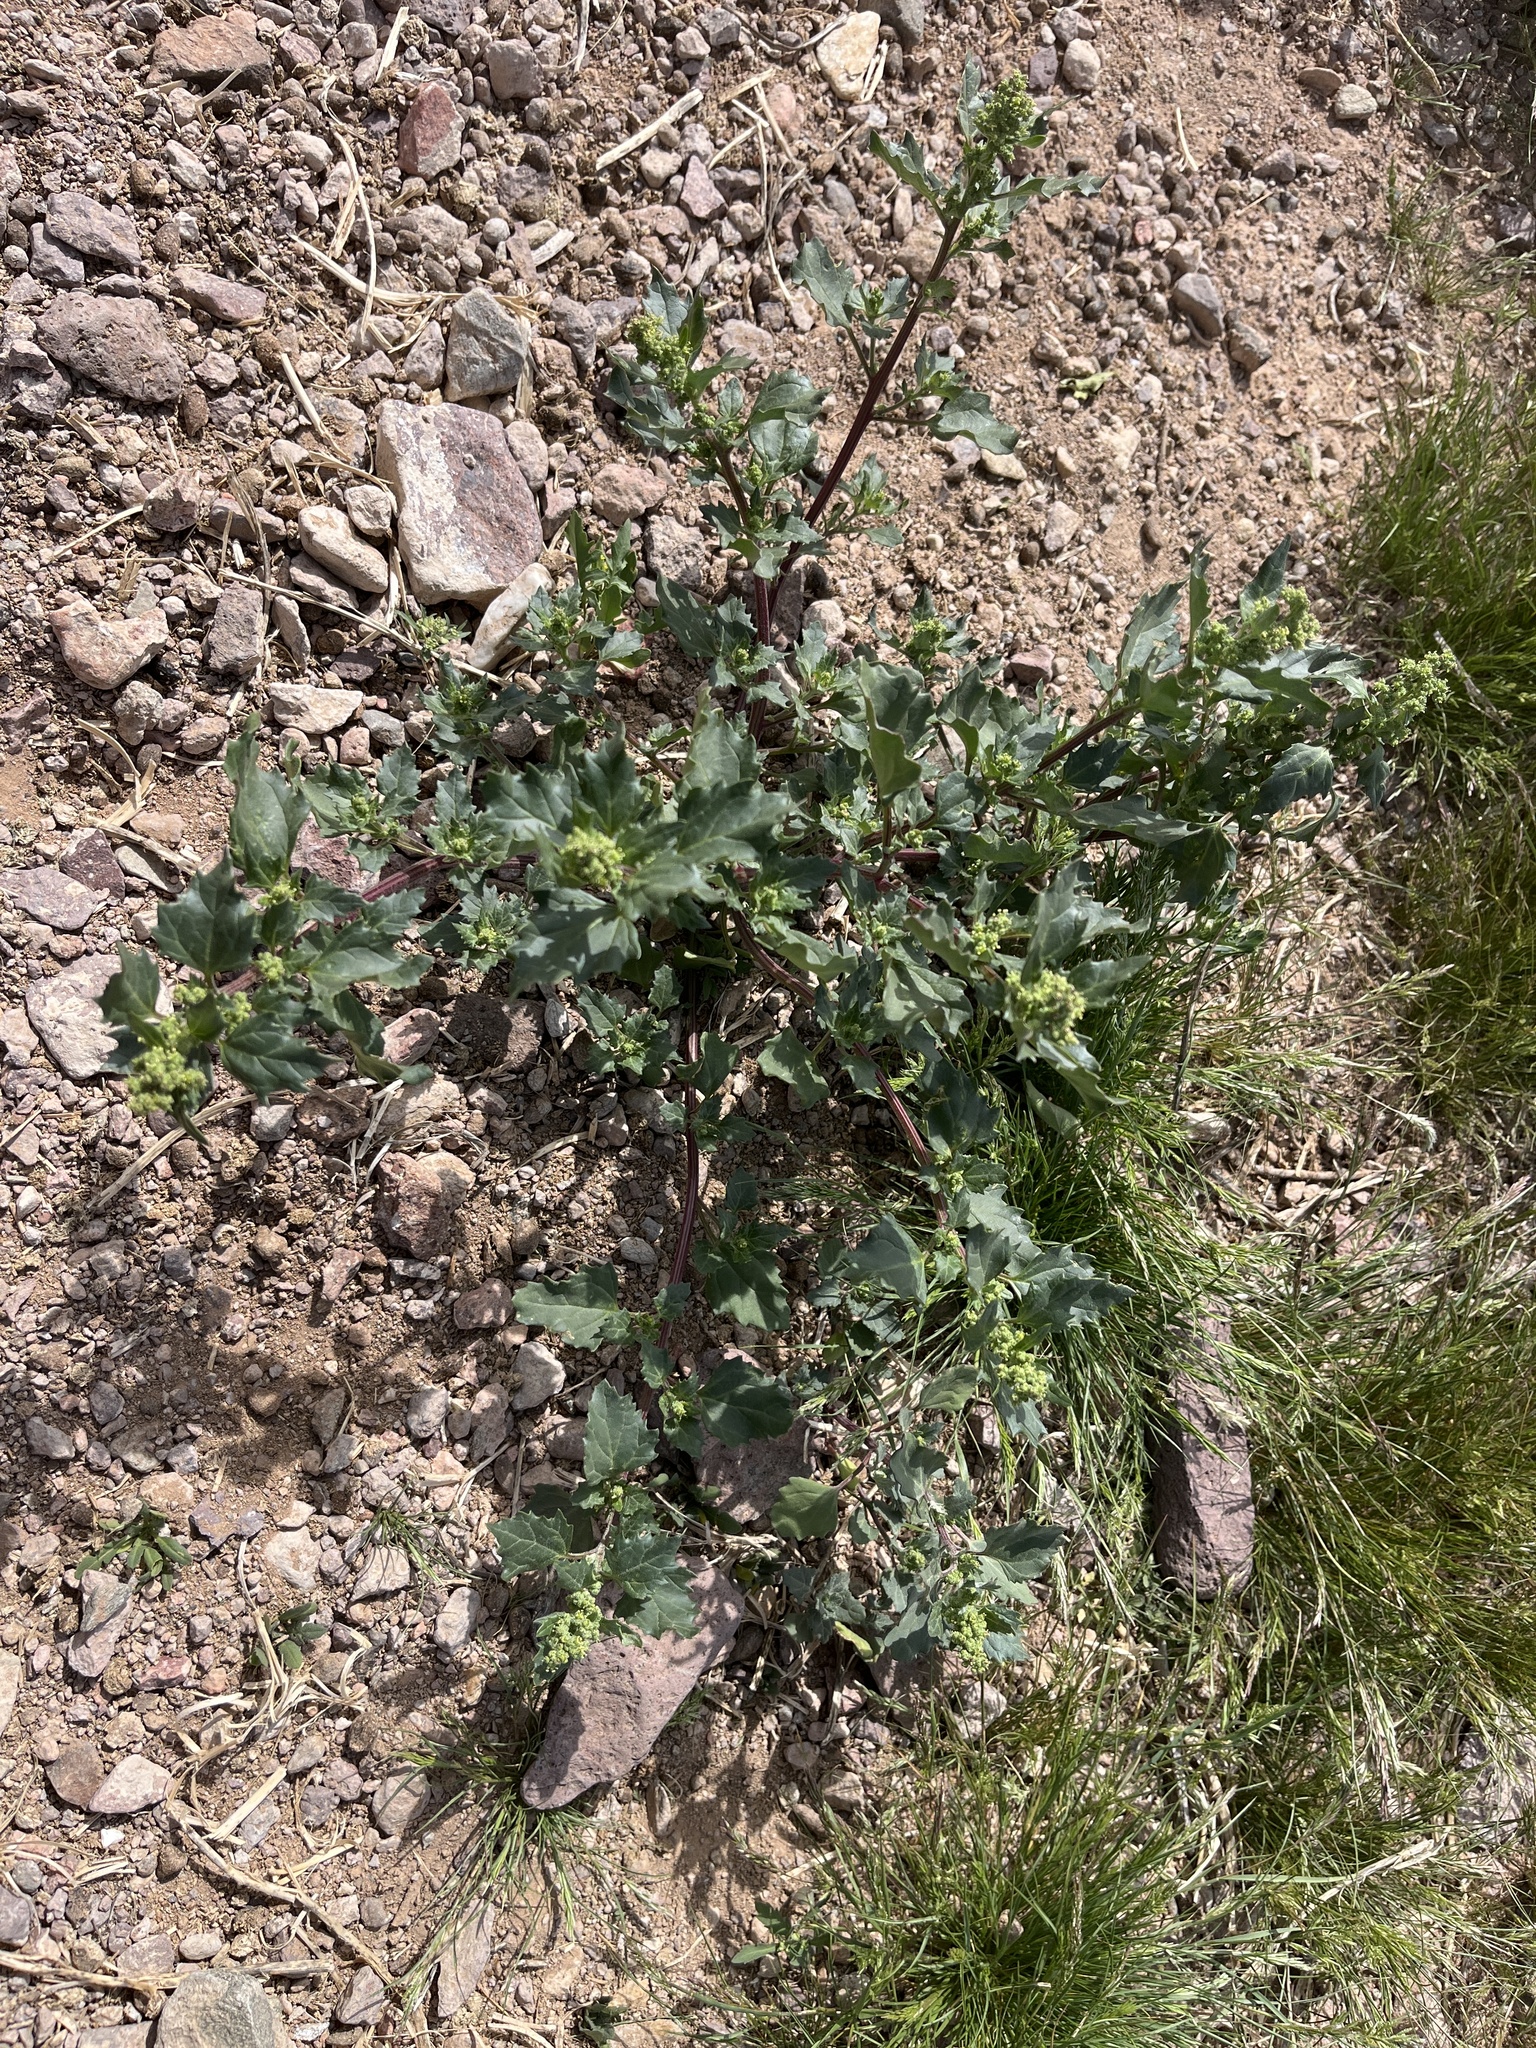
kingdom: Plantae
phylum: Tracheophyta
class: Magnoliopsida
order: Caryophyllales
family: Amaranthaceae
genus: Chenopodiastrum
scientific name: Chenopodiastrum murale
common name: Sowbane
